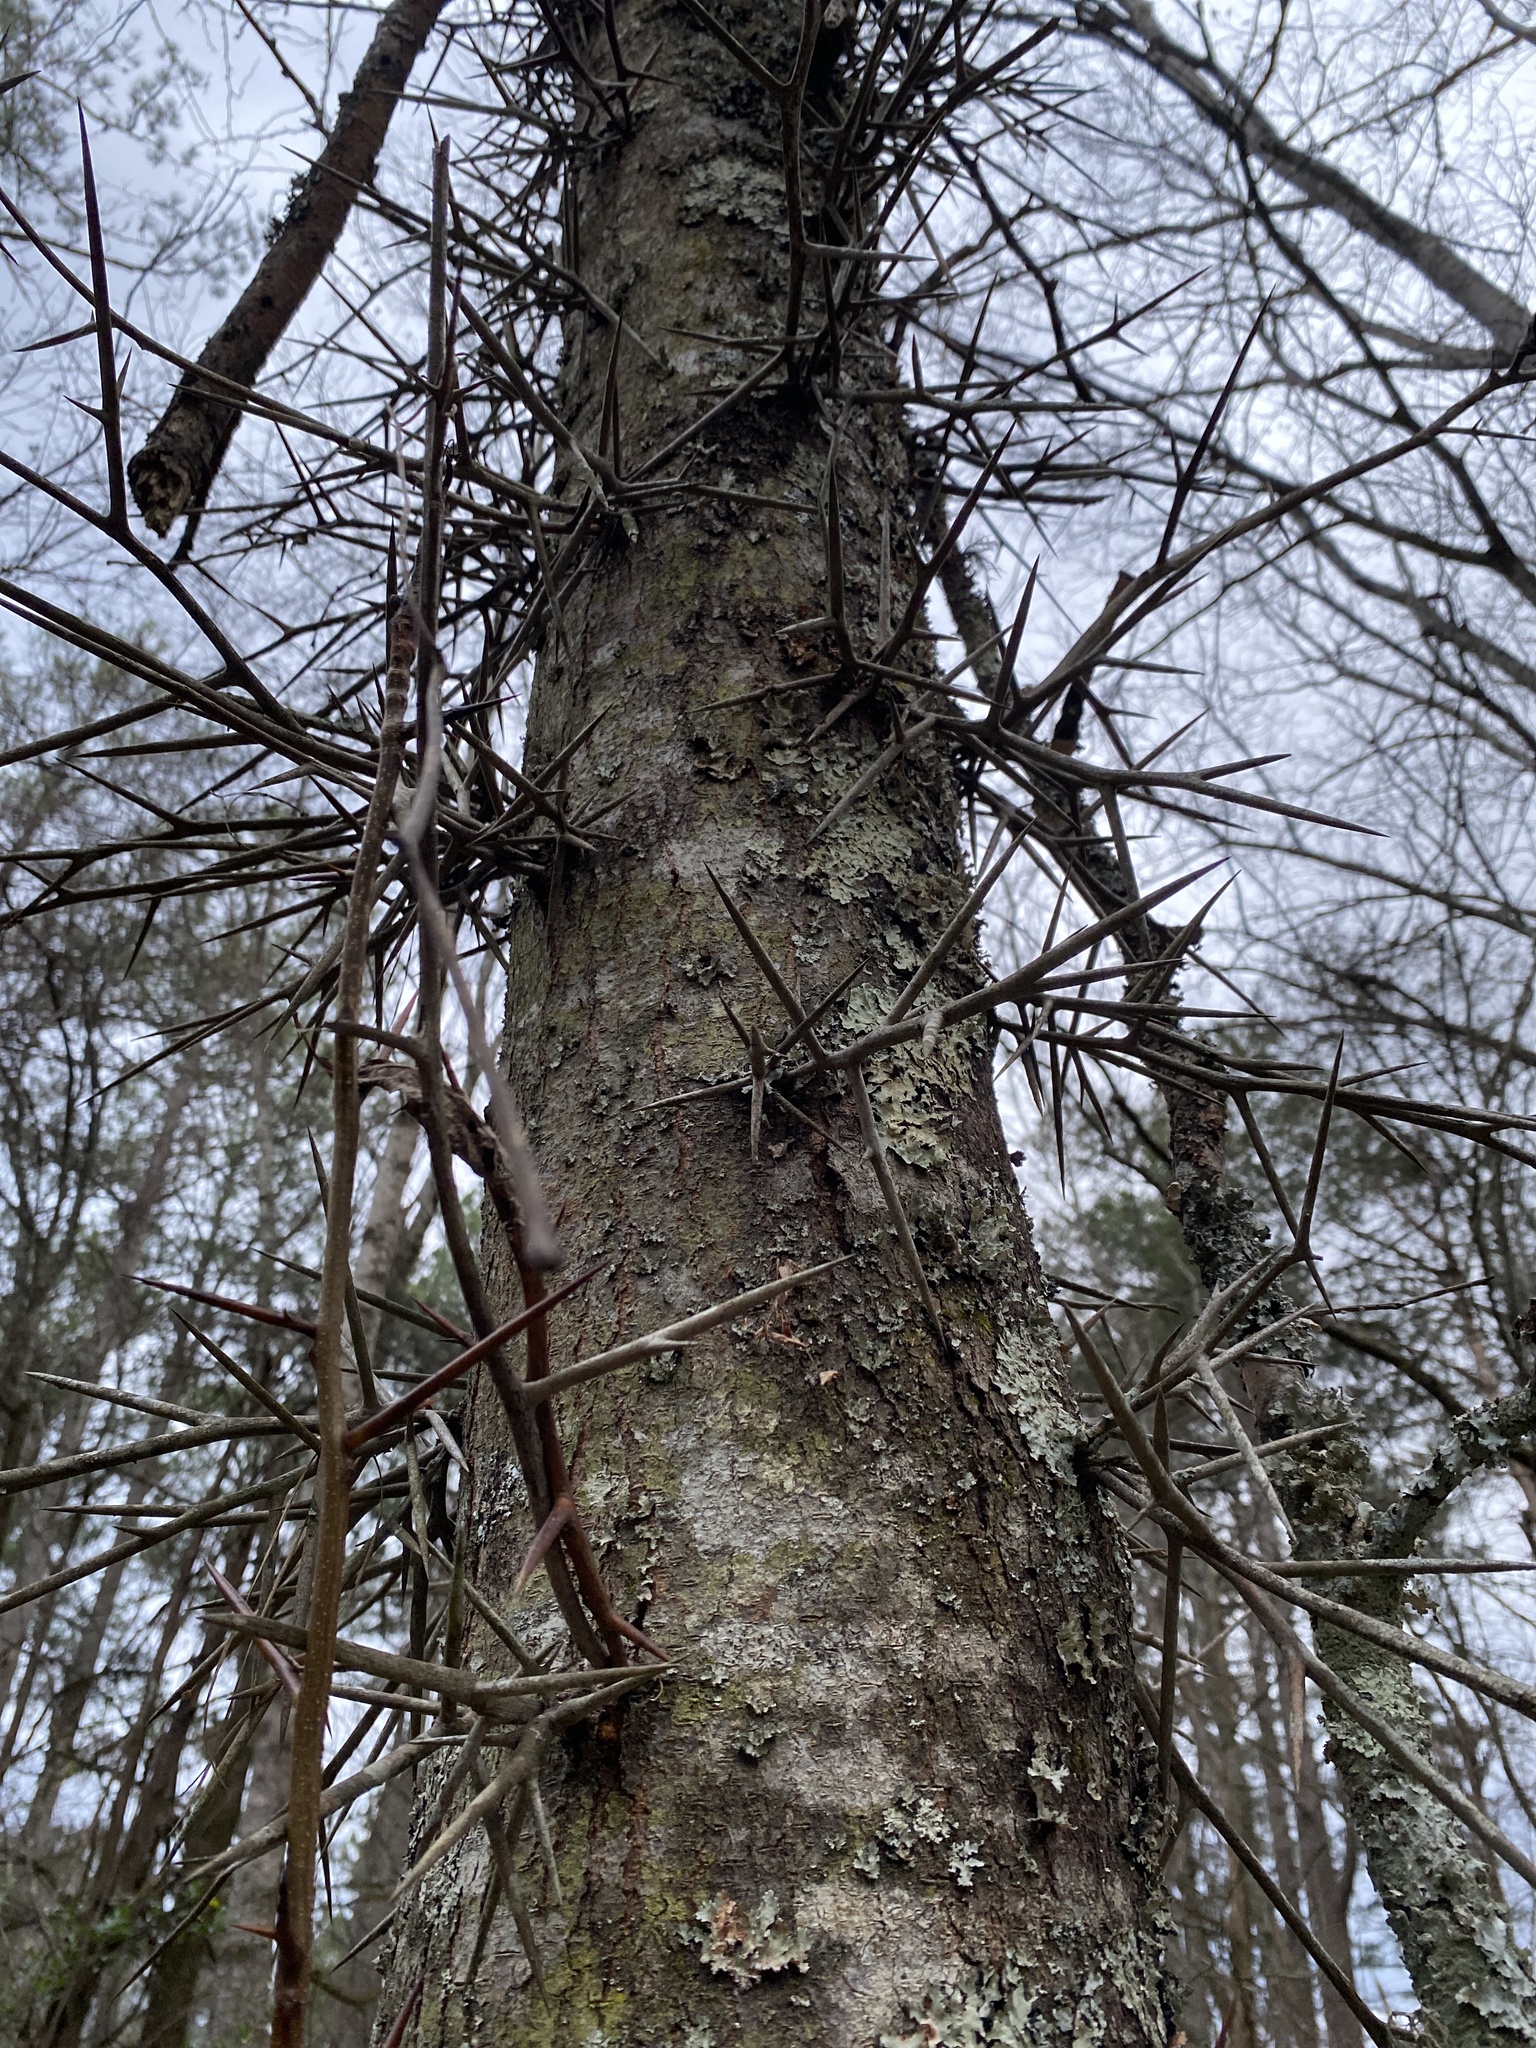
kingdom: Plantae
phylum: Tracheophyta
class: Magnoliopsida
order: Fabales
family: Fabaceae
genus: Gleditsia
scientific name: Gleditsia triacanthos
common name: Common honeylocust
